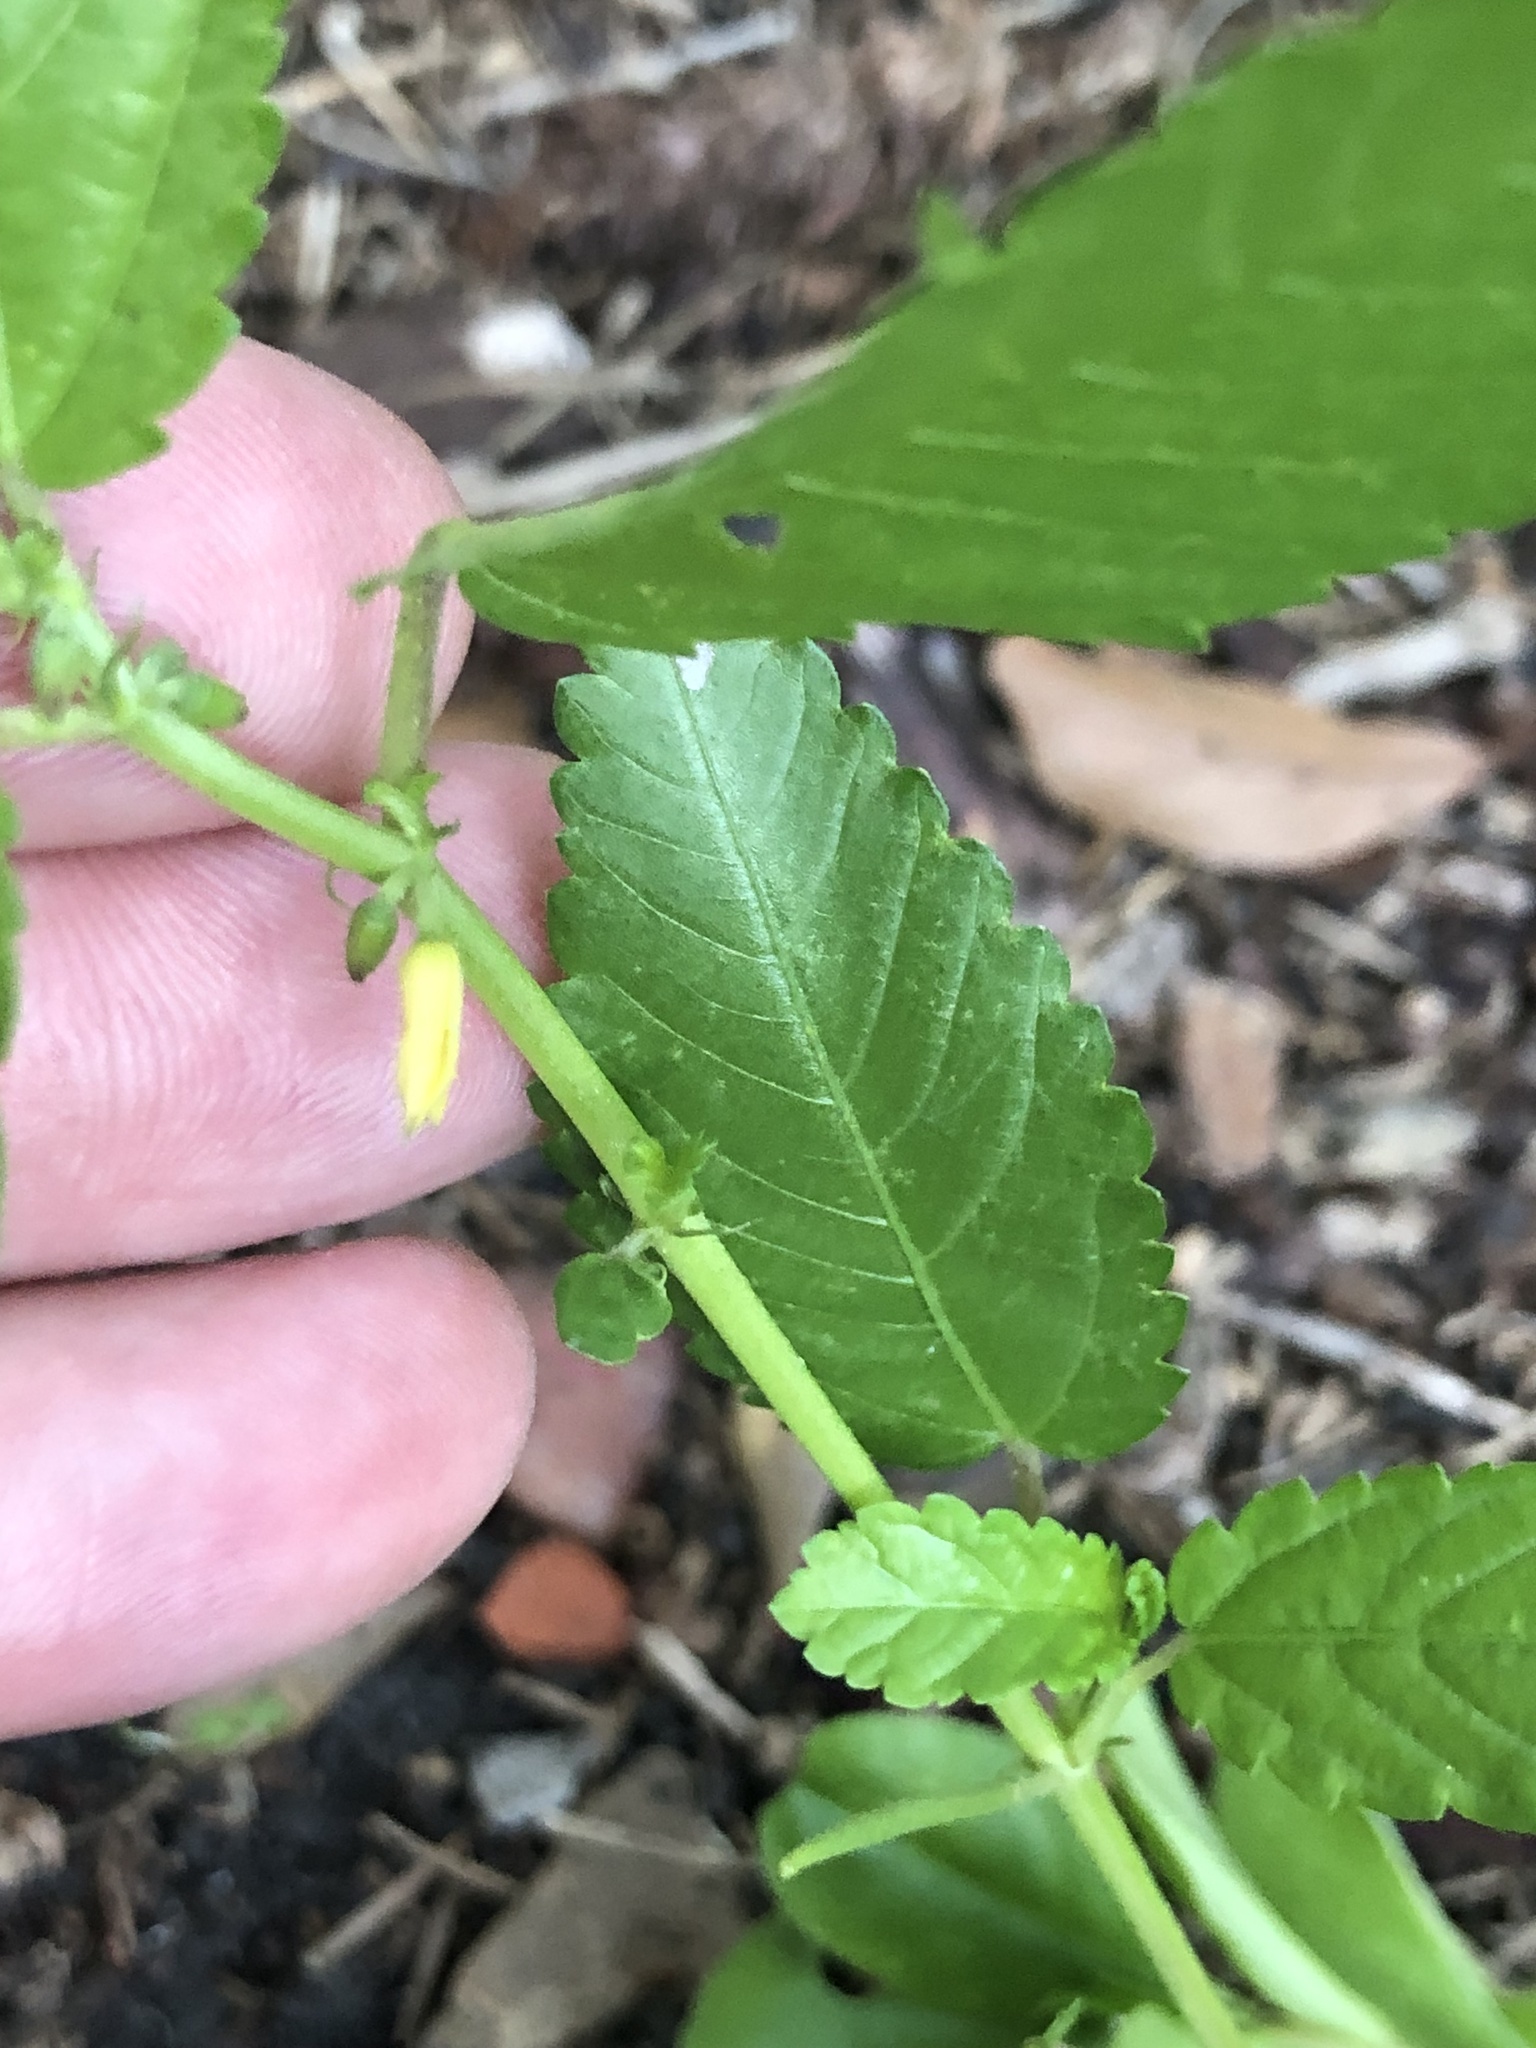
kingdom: Plantae
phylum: Tracheophyta
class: Magnoliopsida
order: Malvales
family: Malvaceae
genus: Corchorus
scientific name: Corchorus hirtus
